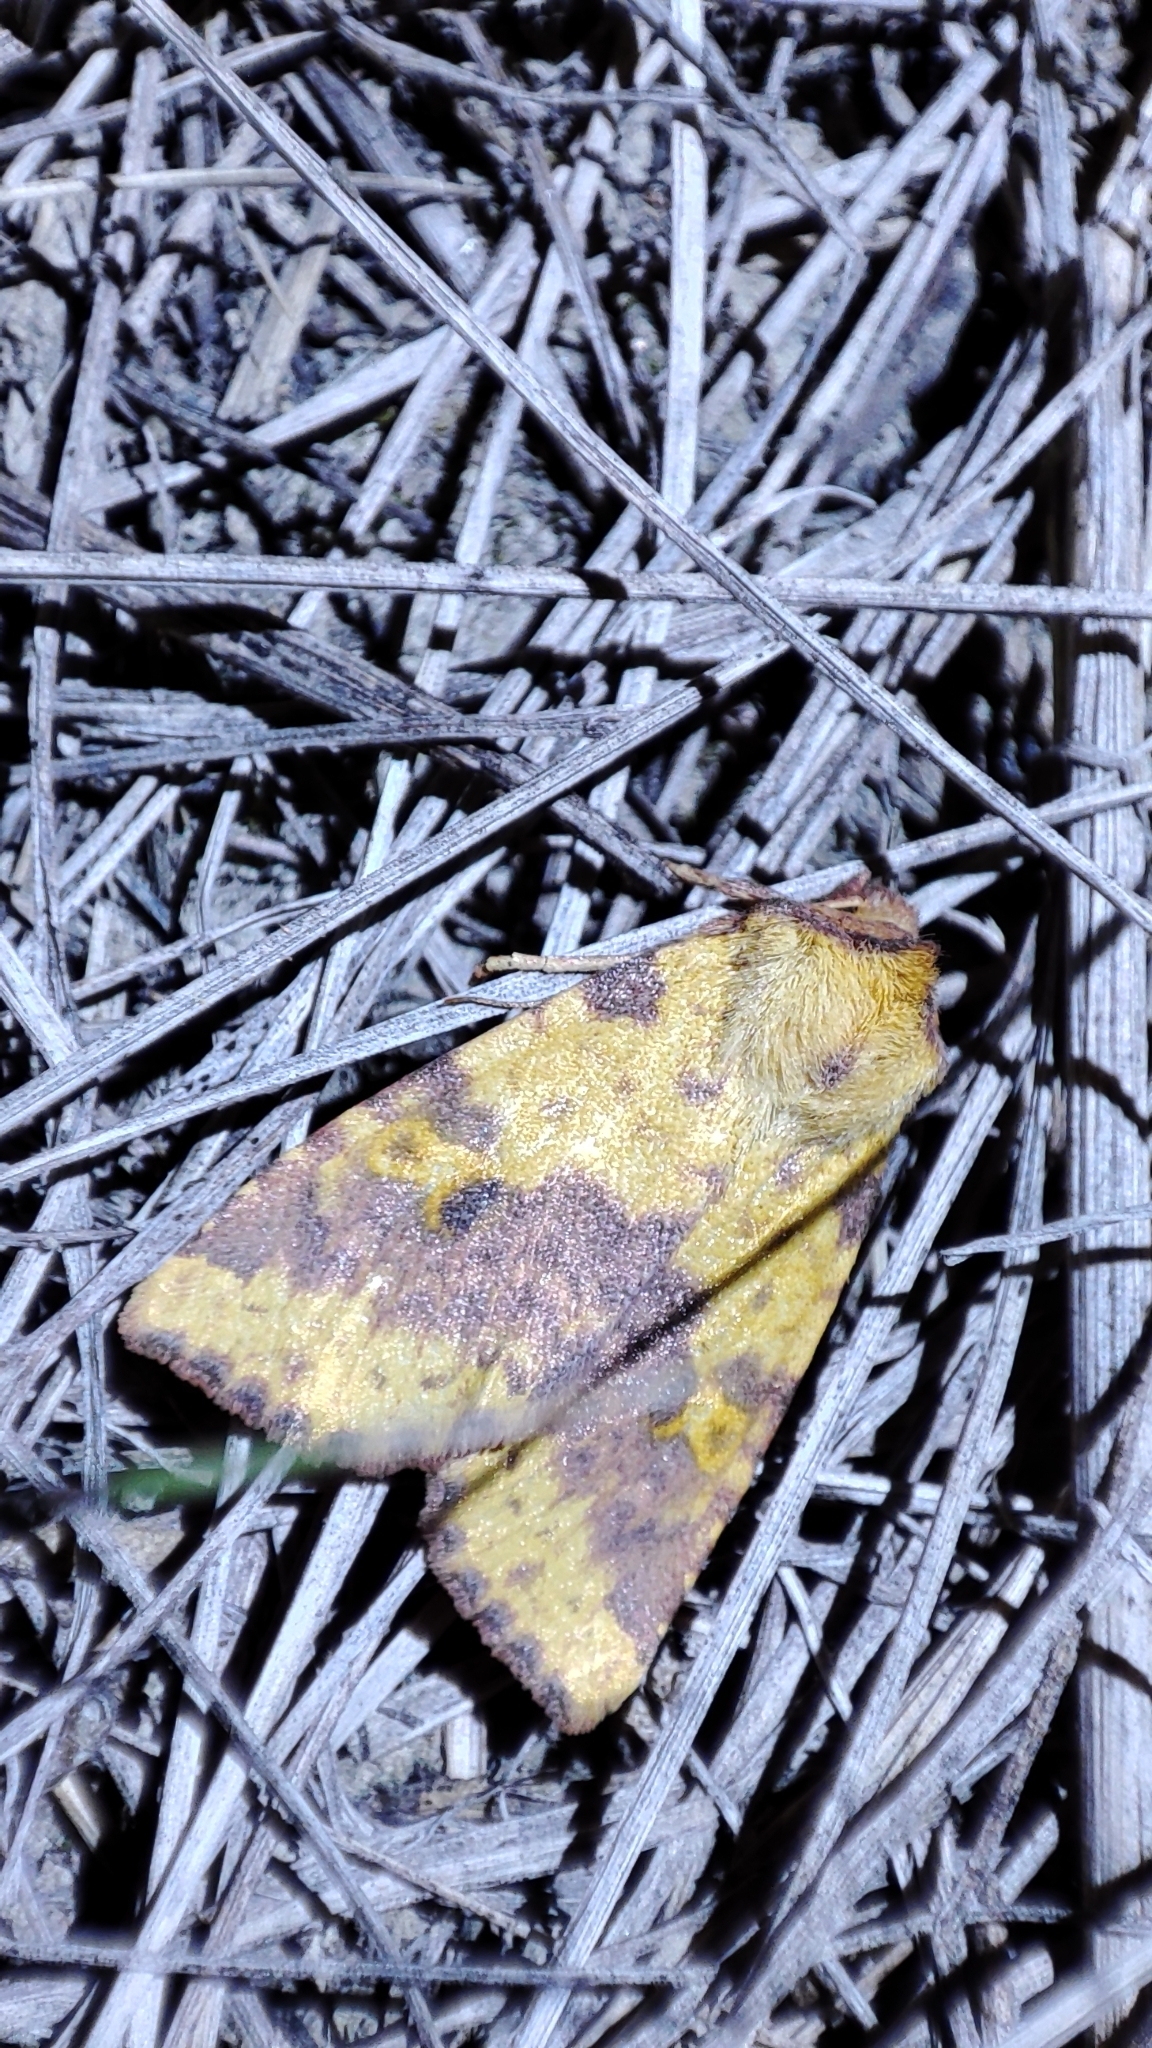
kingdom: Animalia
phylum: Arthropoda
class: Insecta
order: Lepidoptera
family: Noctuidae
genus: Xanthia
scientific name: Xanthia togata
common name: Pink-barred sallow
